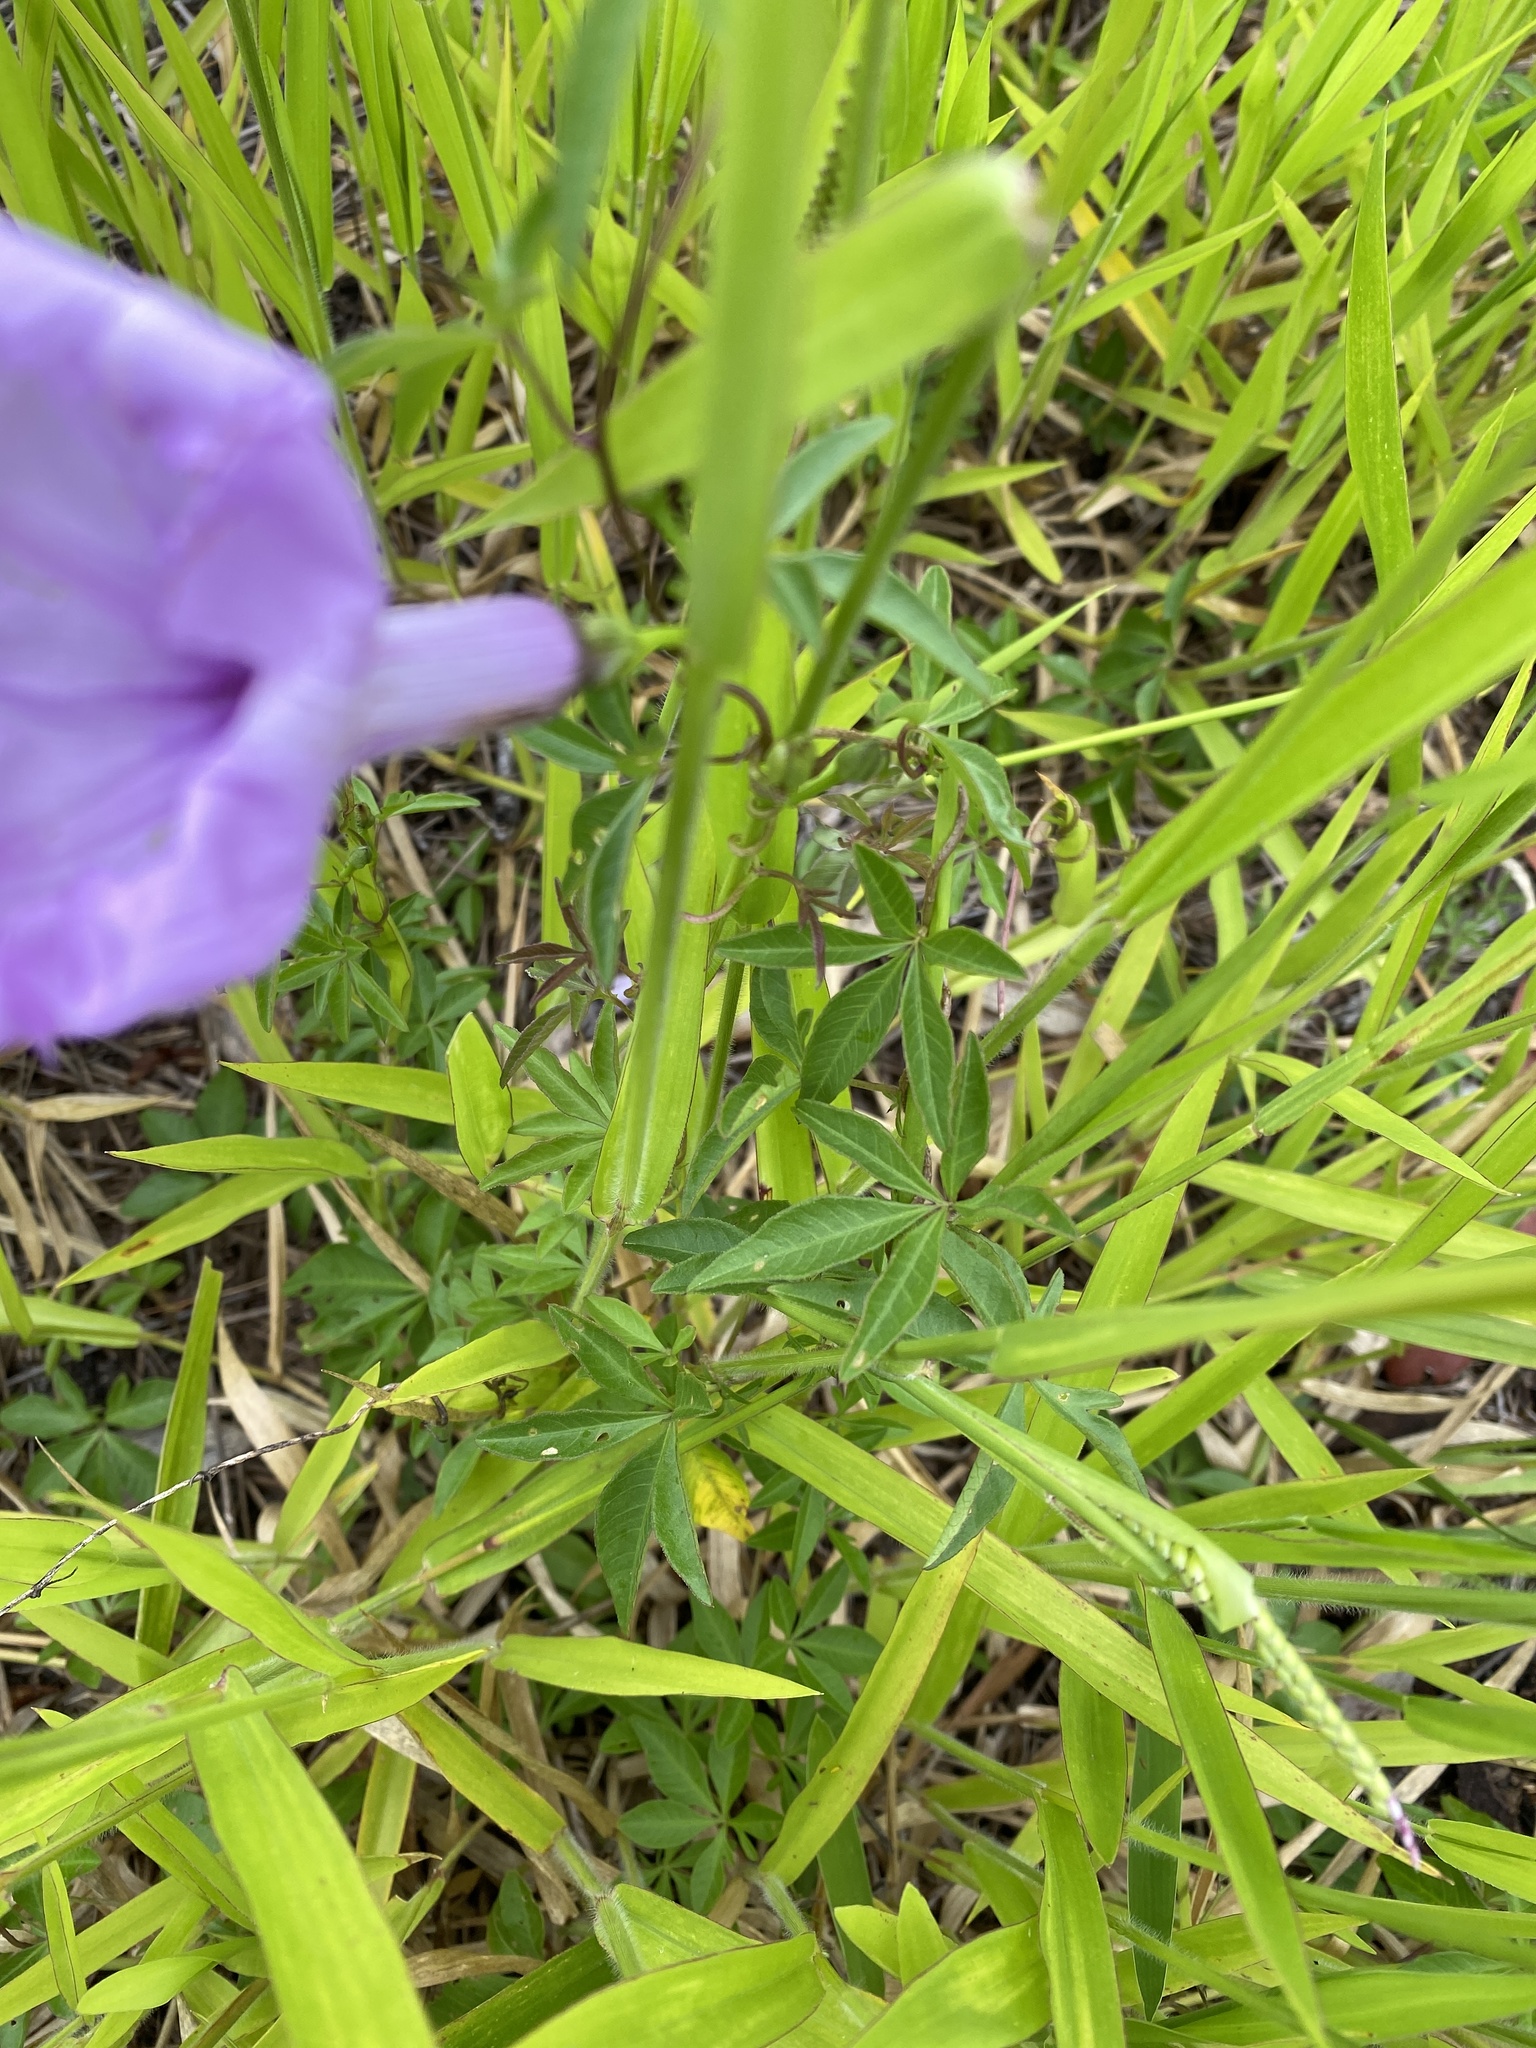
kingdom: Plantae
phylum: Tracheophyta
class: Magnoliopsida
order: Solanales
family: Convolvulaceae
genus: Ipomoea
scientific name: Ipomoea cairica
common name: Mile a minute vine
